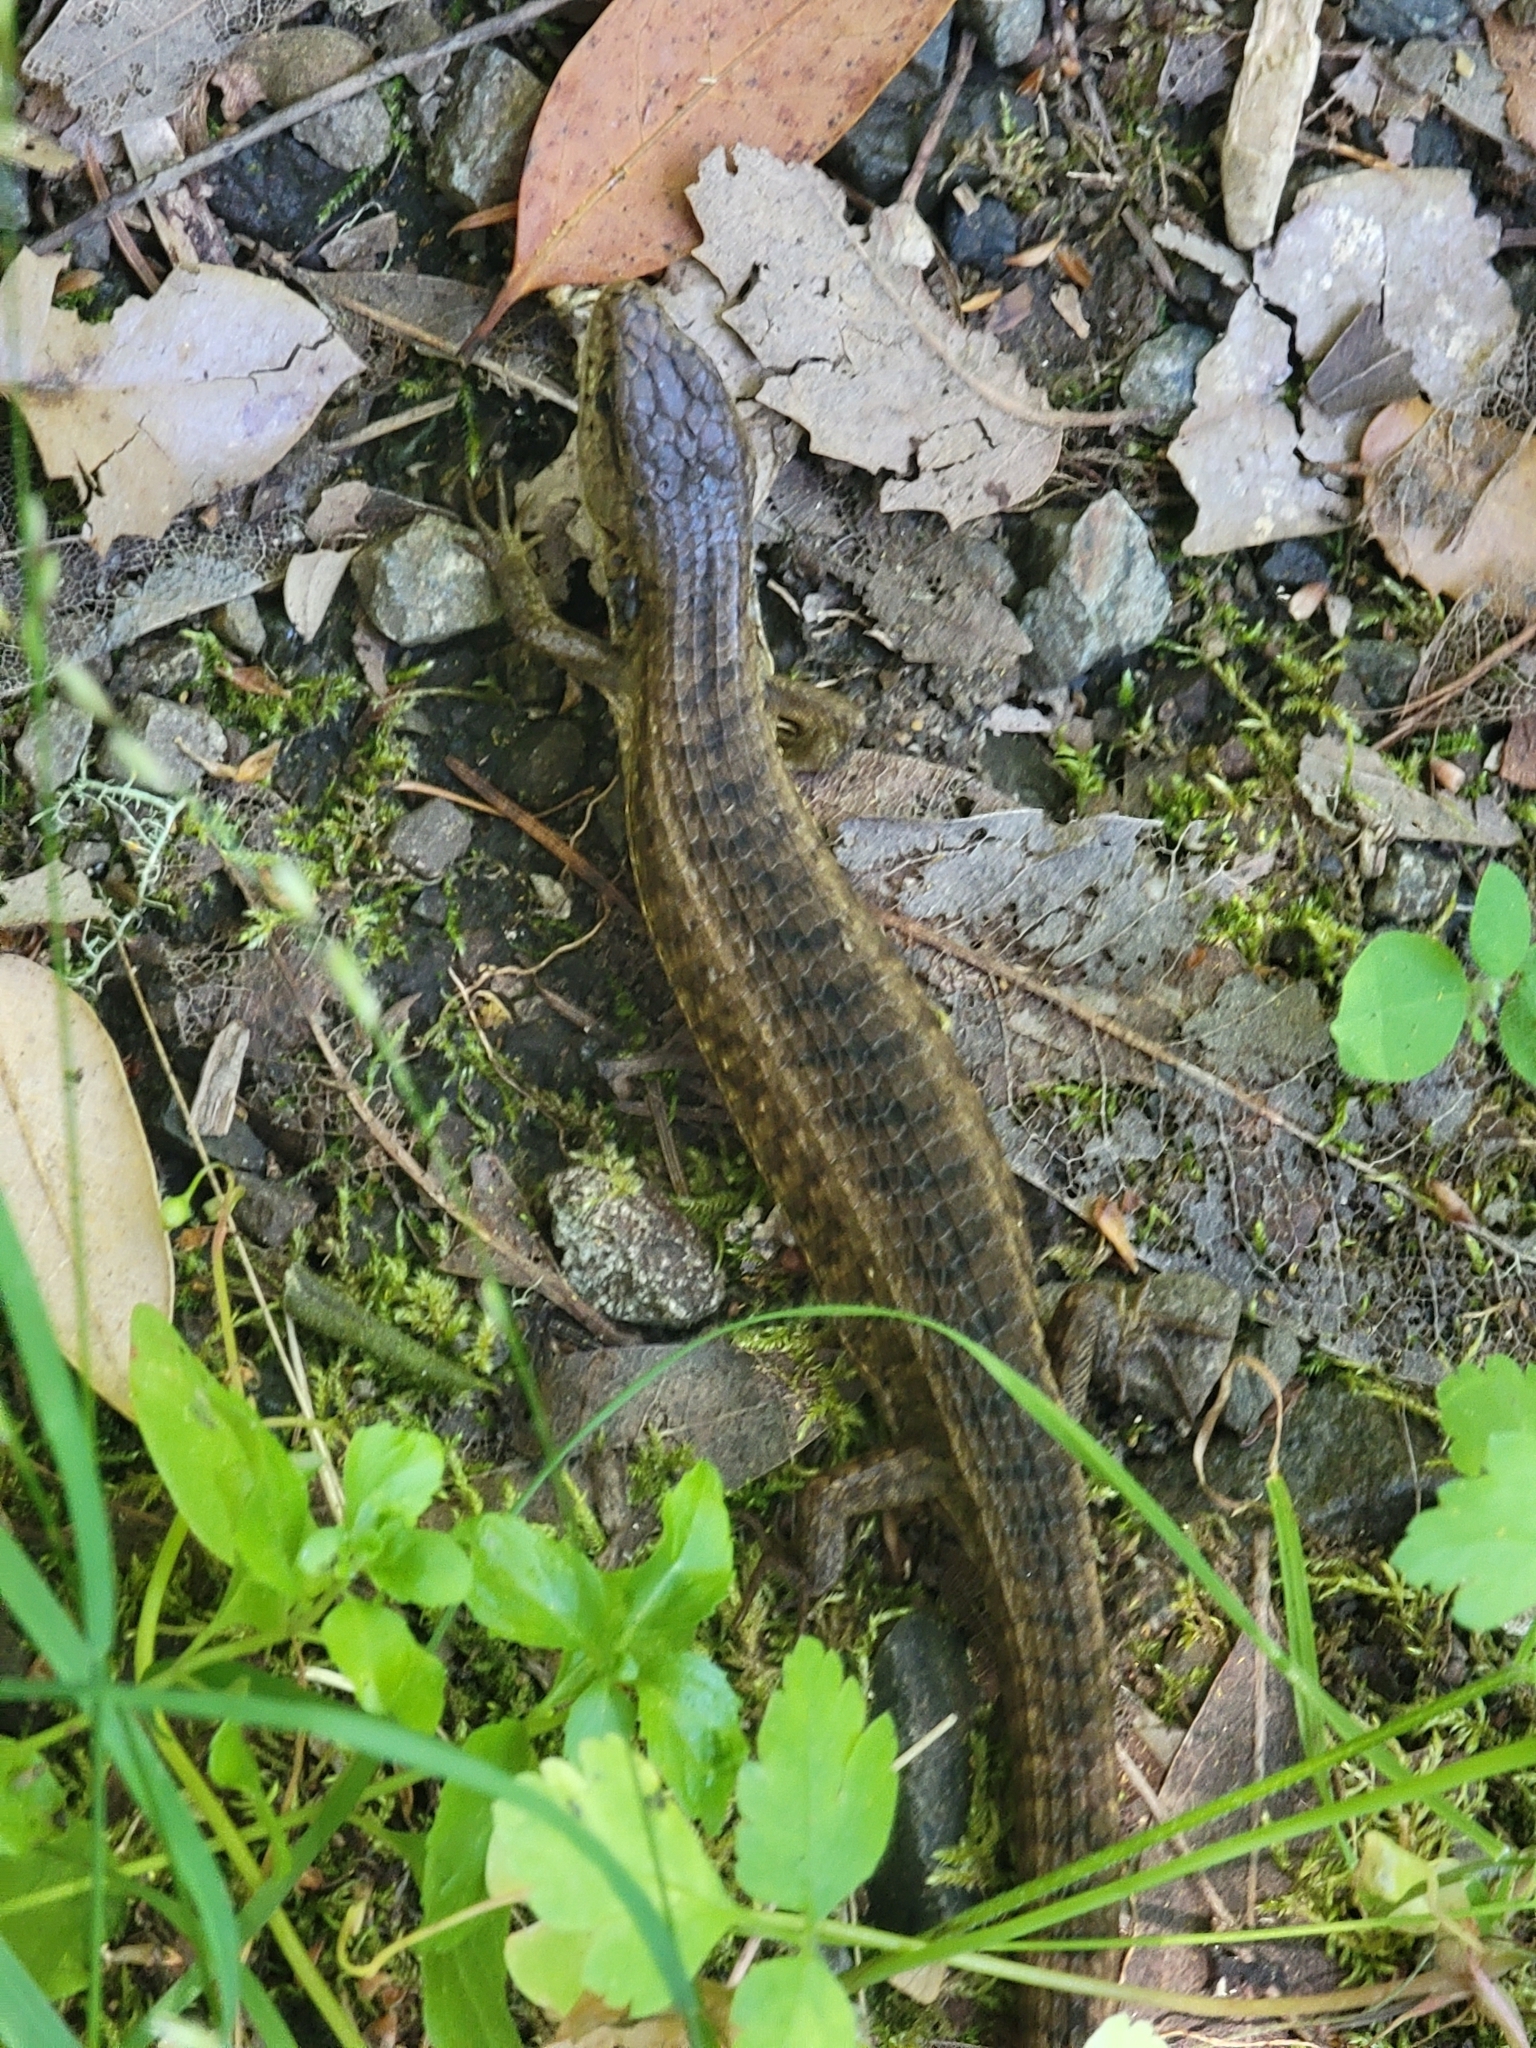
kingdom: Animalia
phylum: Chordata
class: Squamata
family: Anguidae
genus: Elgaria
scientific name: Elgaria coerulea
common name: Northern alligator lizard
